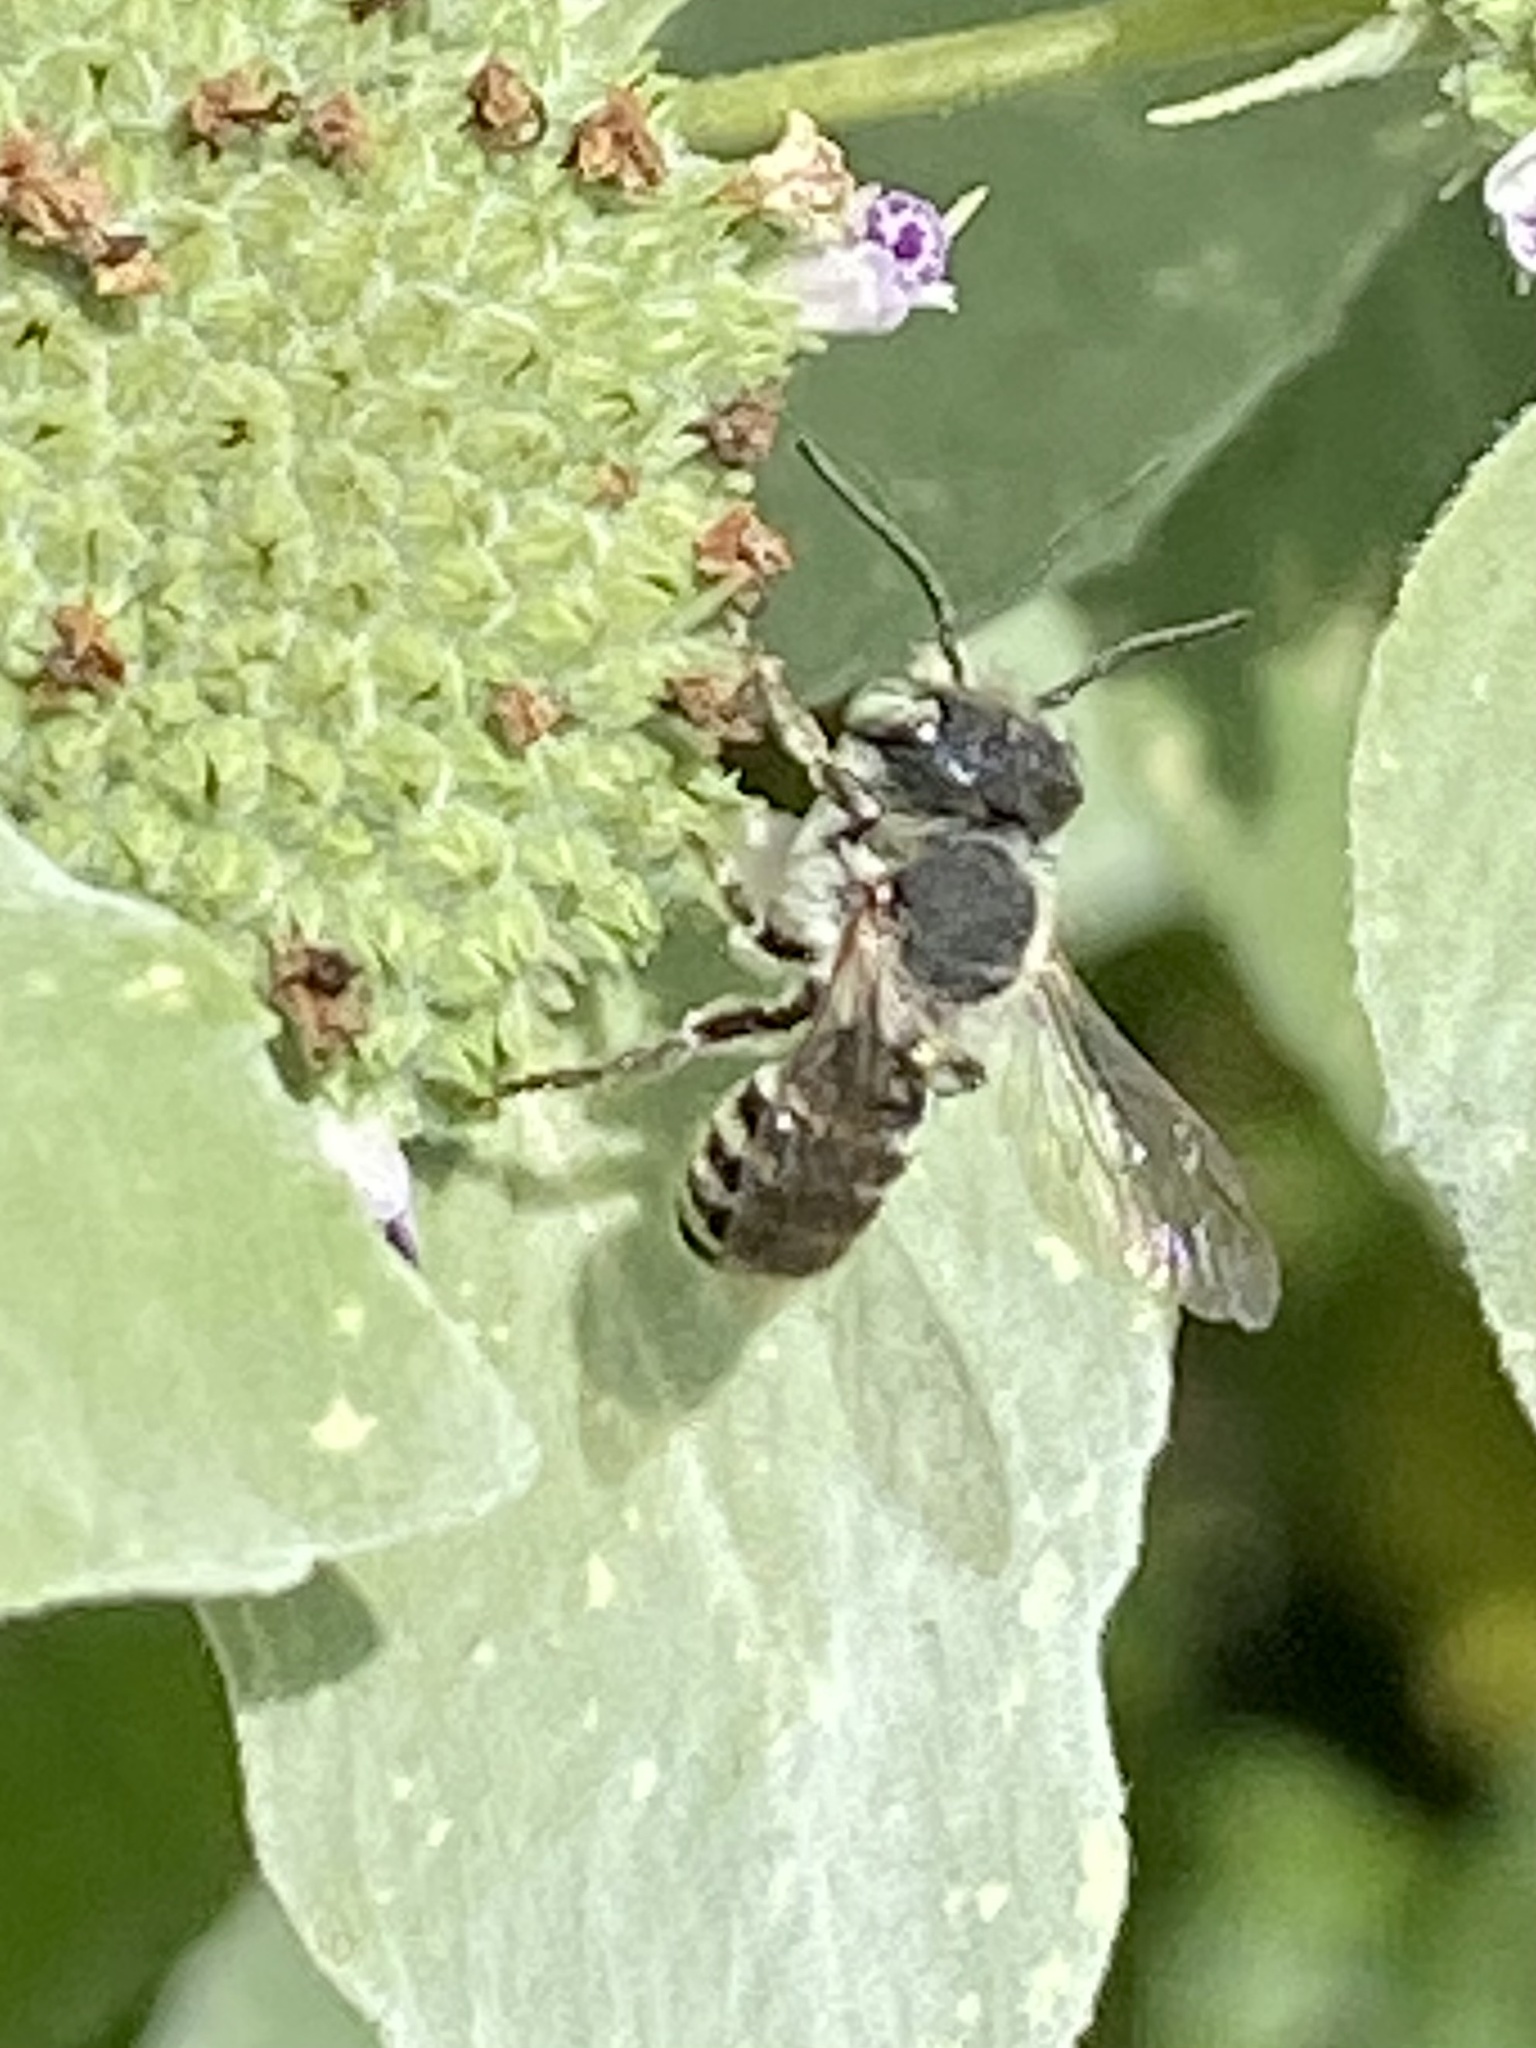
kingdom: Animalia
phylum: Arthropoda
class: Insecta
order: Hymenoptera
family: Megachilidae
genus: Megachile
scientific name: Megachile rotundata
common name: Alfalfa leafcutting bee
